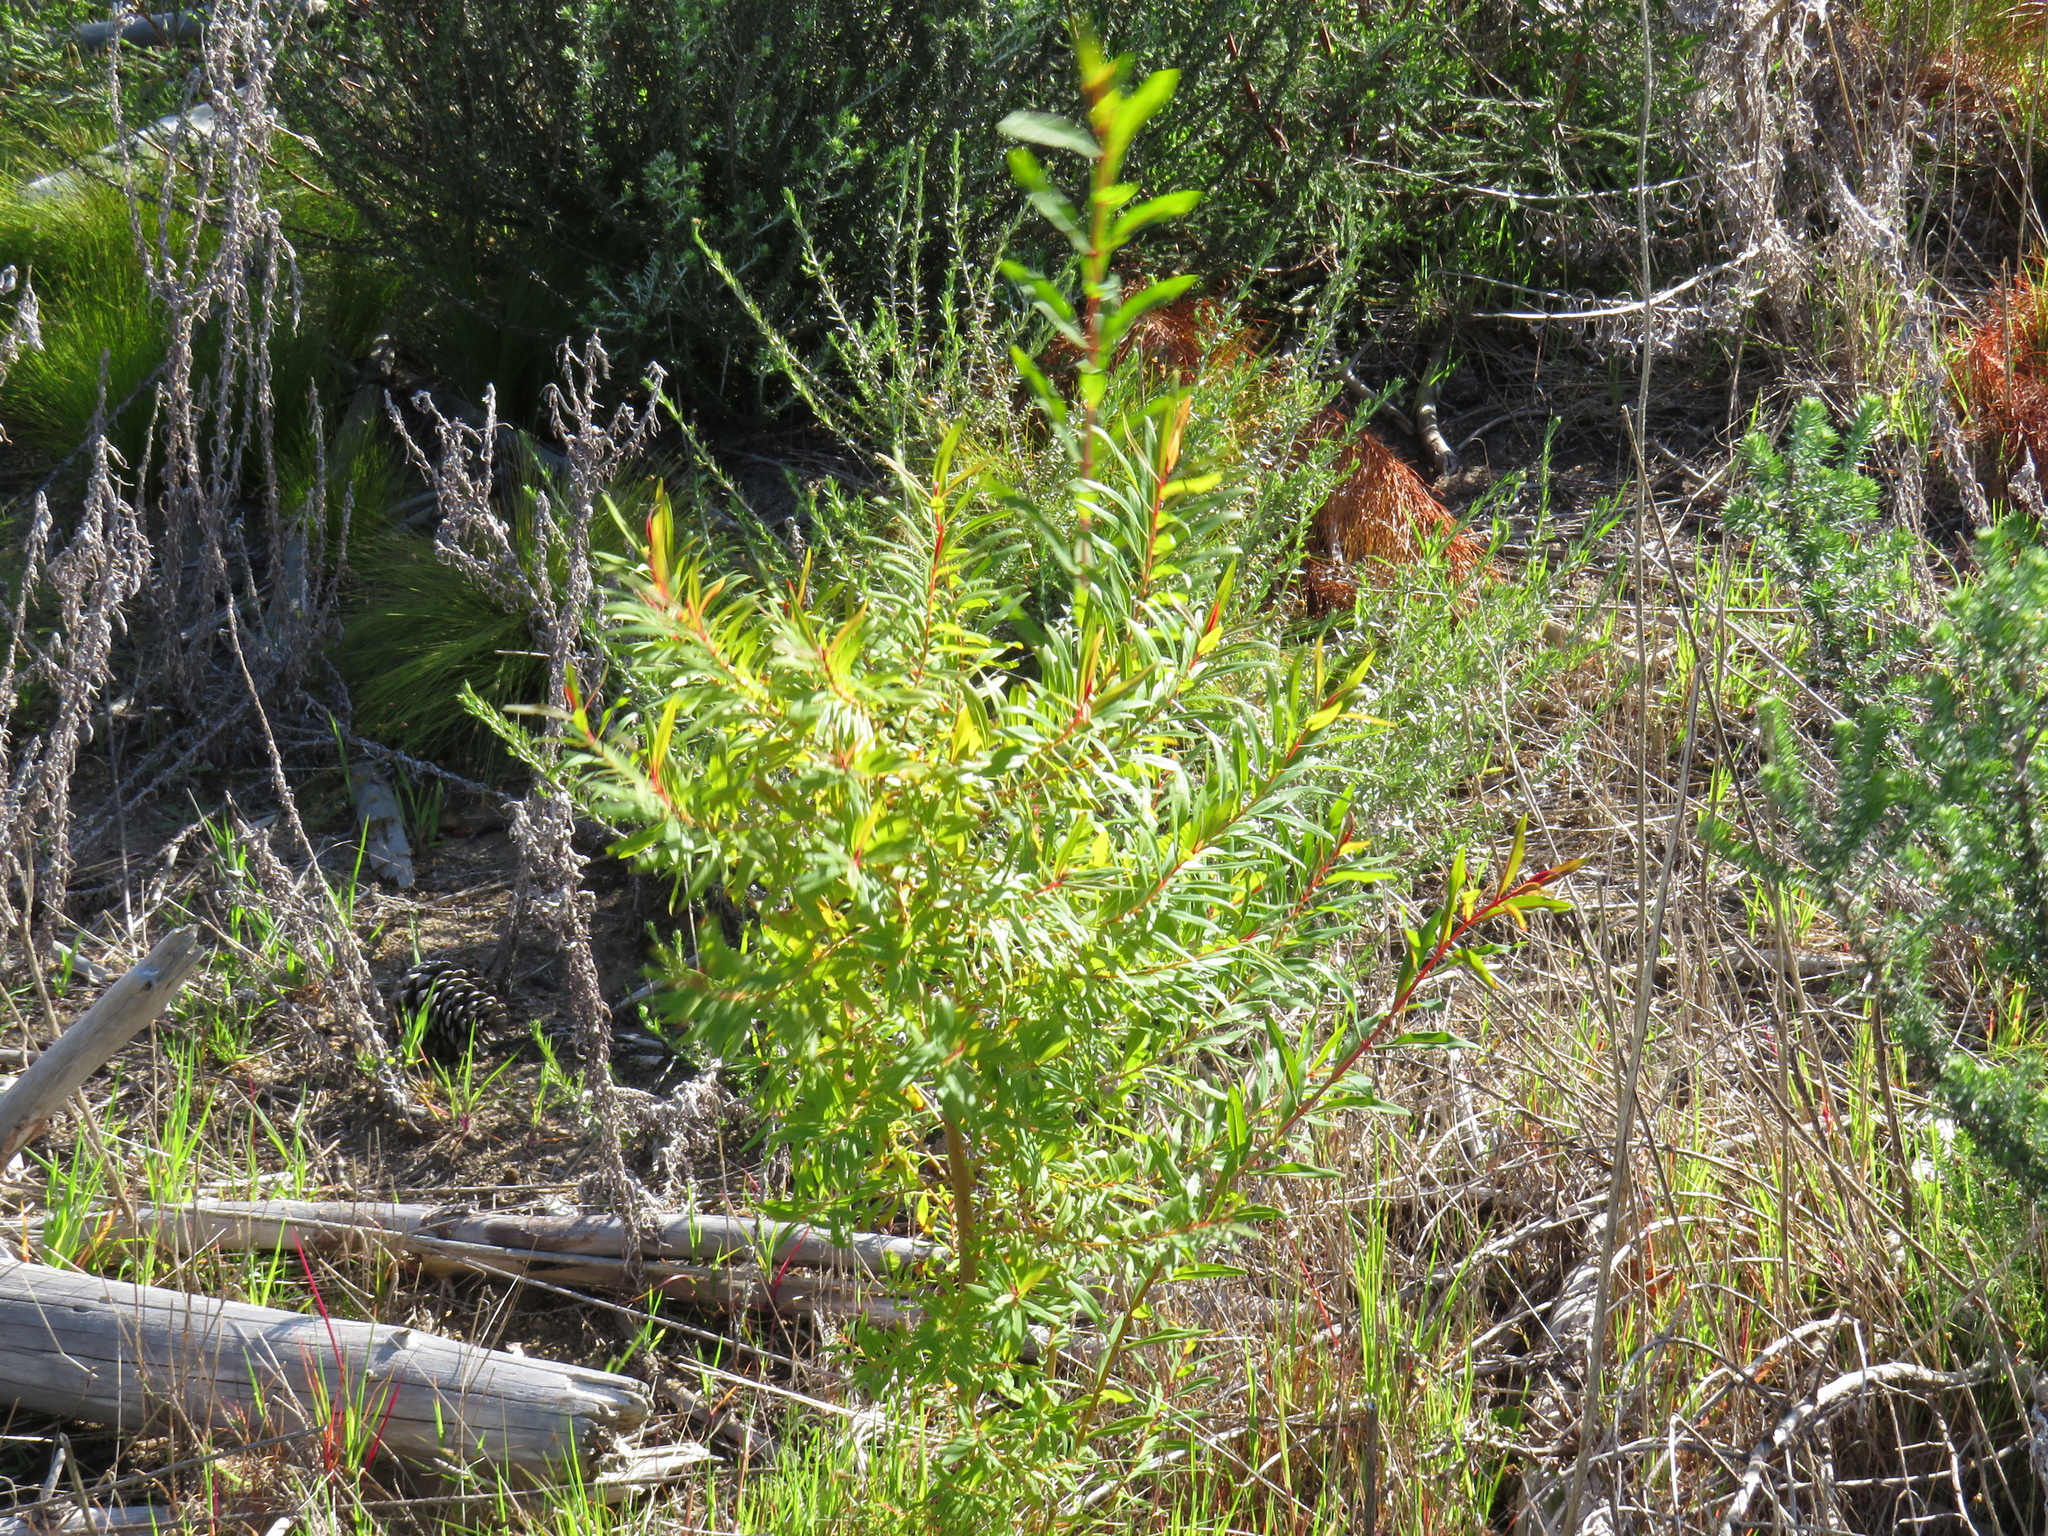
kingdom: Plantae
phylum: Tracheophyta
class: Magnoliopsida
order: Malpighiales
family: Hypericaceae
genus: Hypericum
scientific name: Hypericum canariense
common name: Canary island st. johnswort
